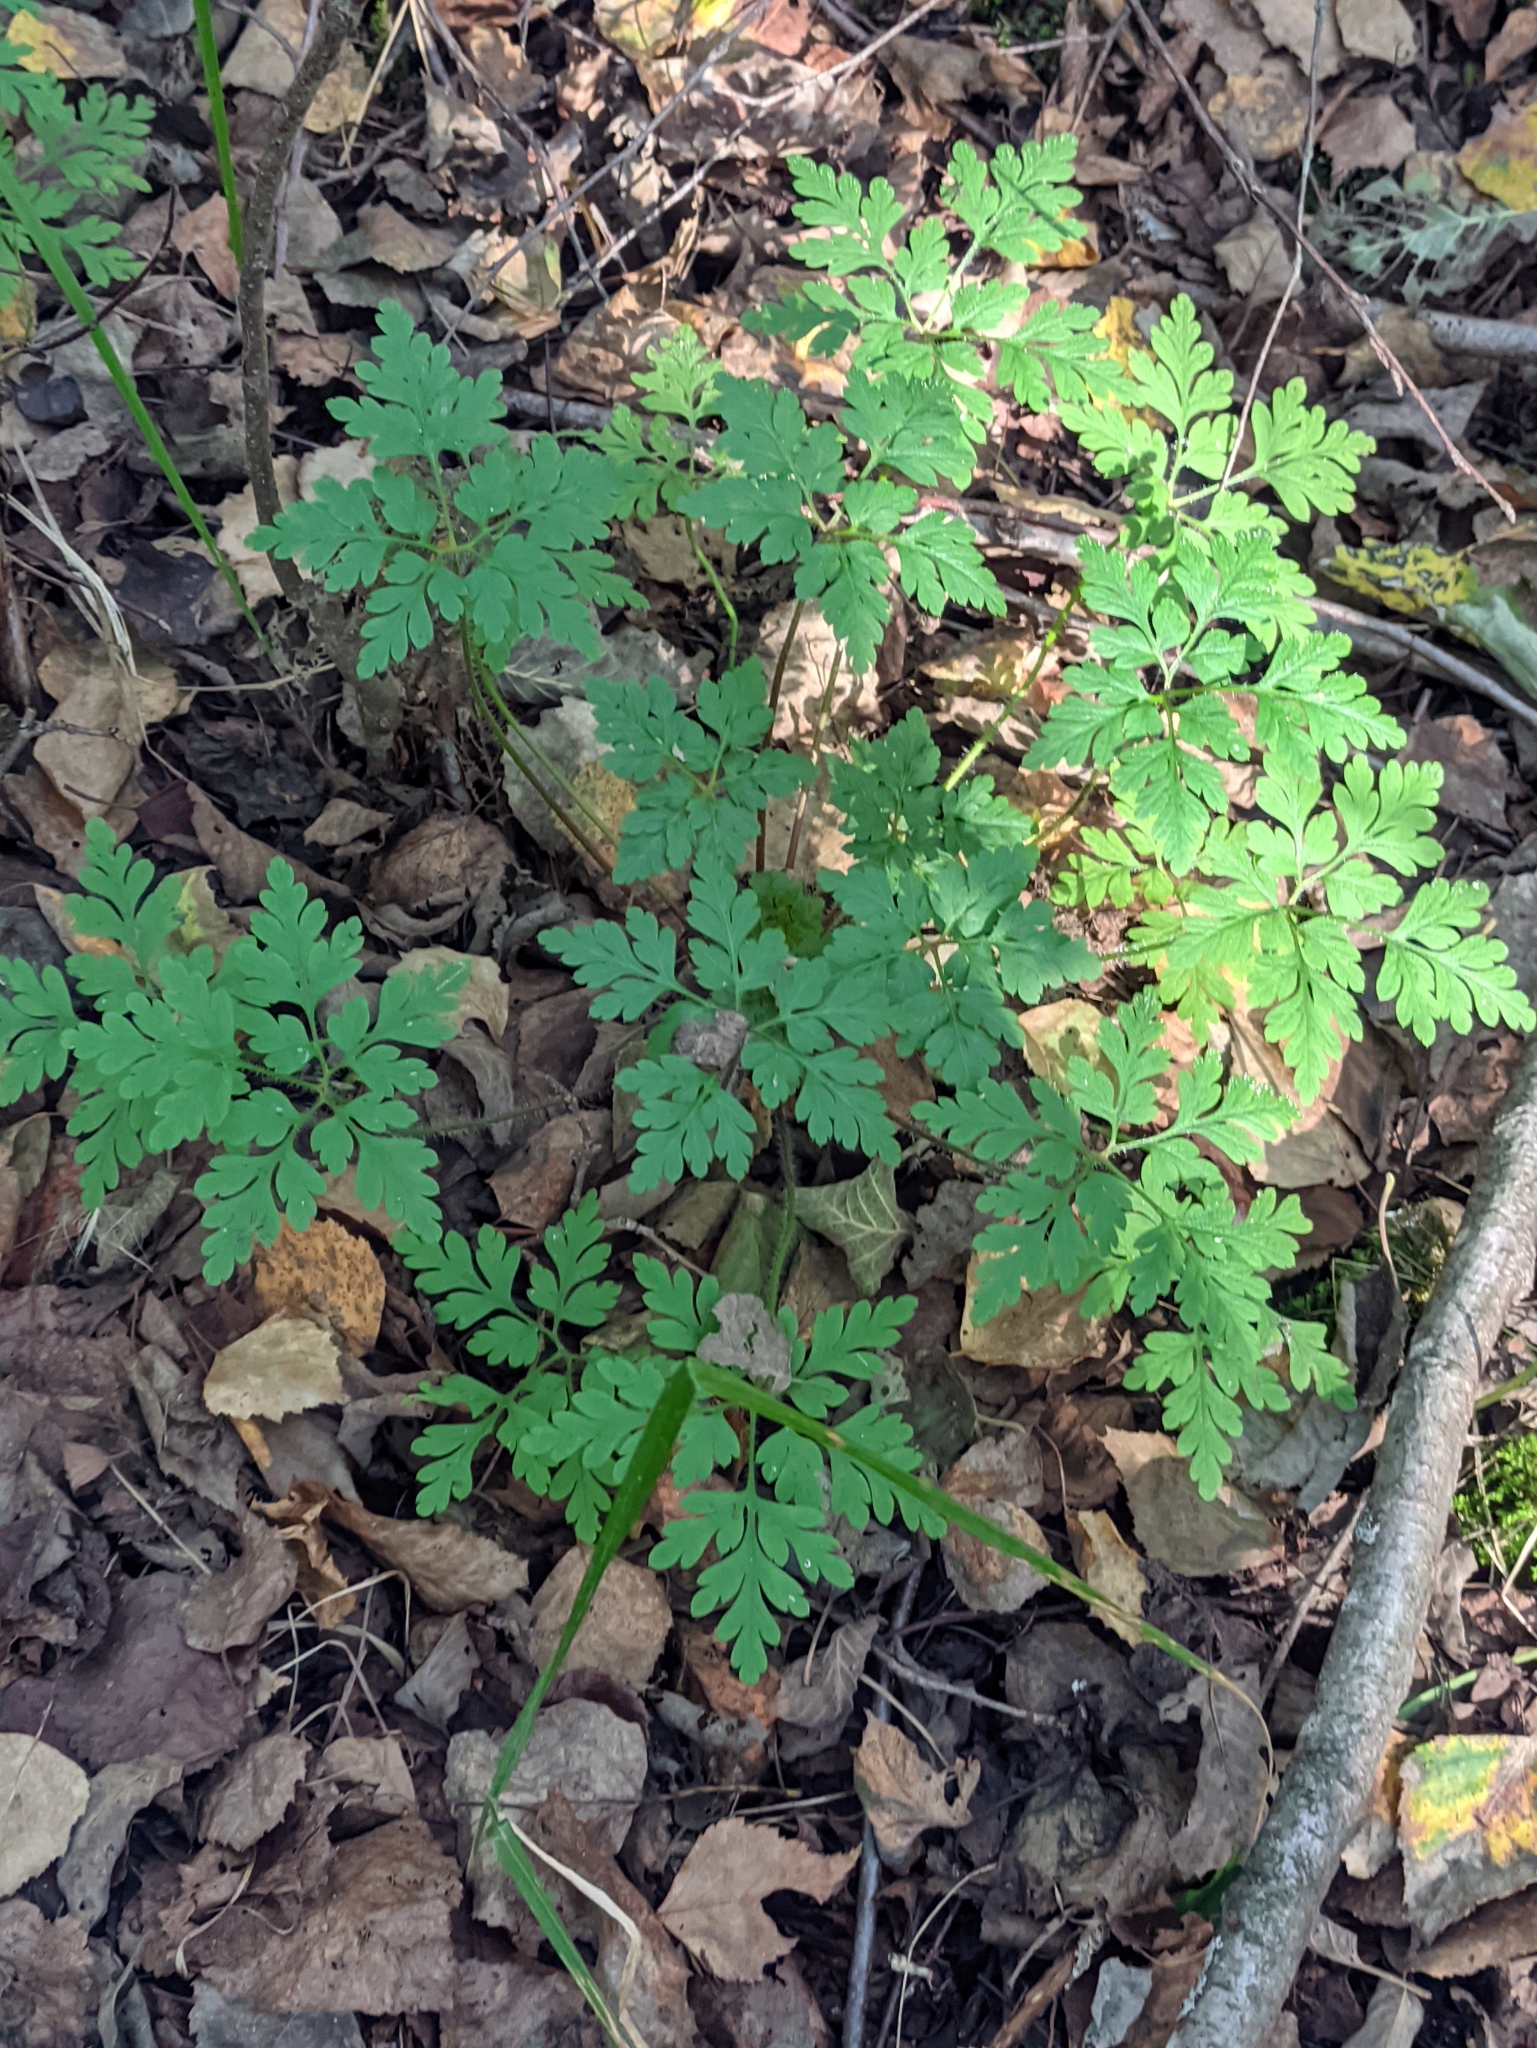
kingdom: Plantae
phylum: Tracheophyta
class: Magnoliopsida
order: Geraniales
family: Geraniaceae
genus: Geranium
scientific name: Geranium robertianum
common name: Herb-robert
